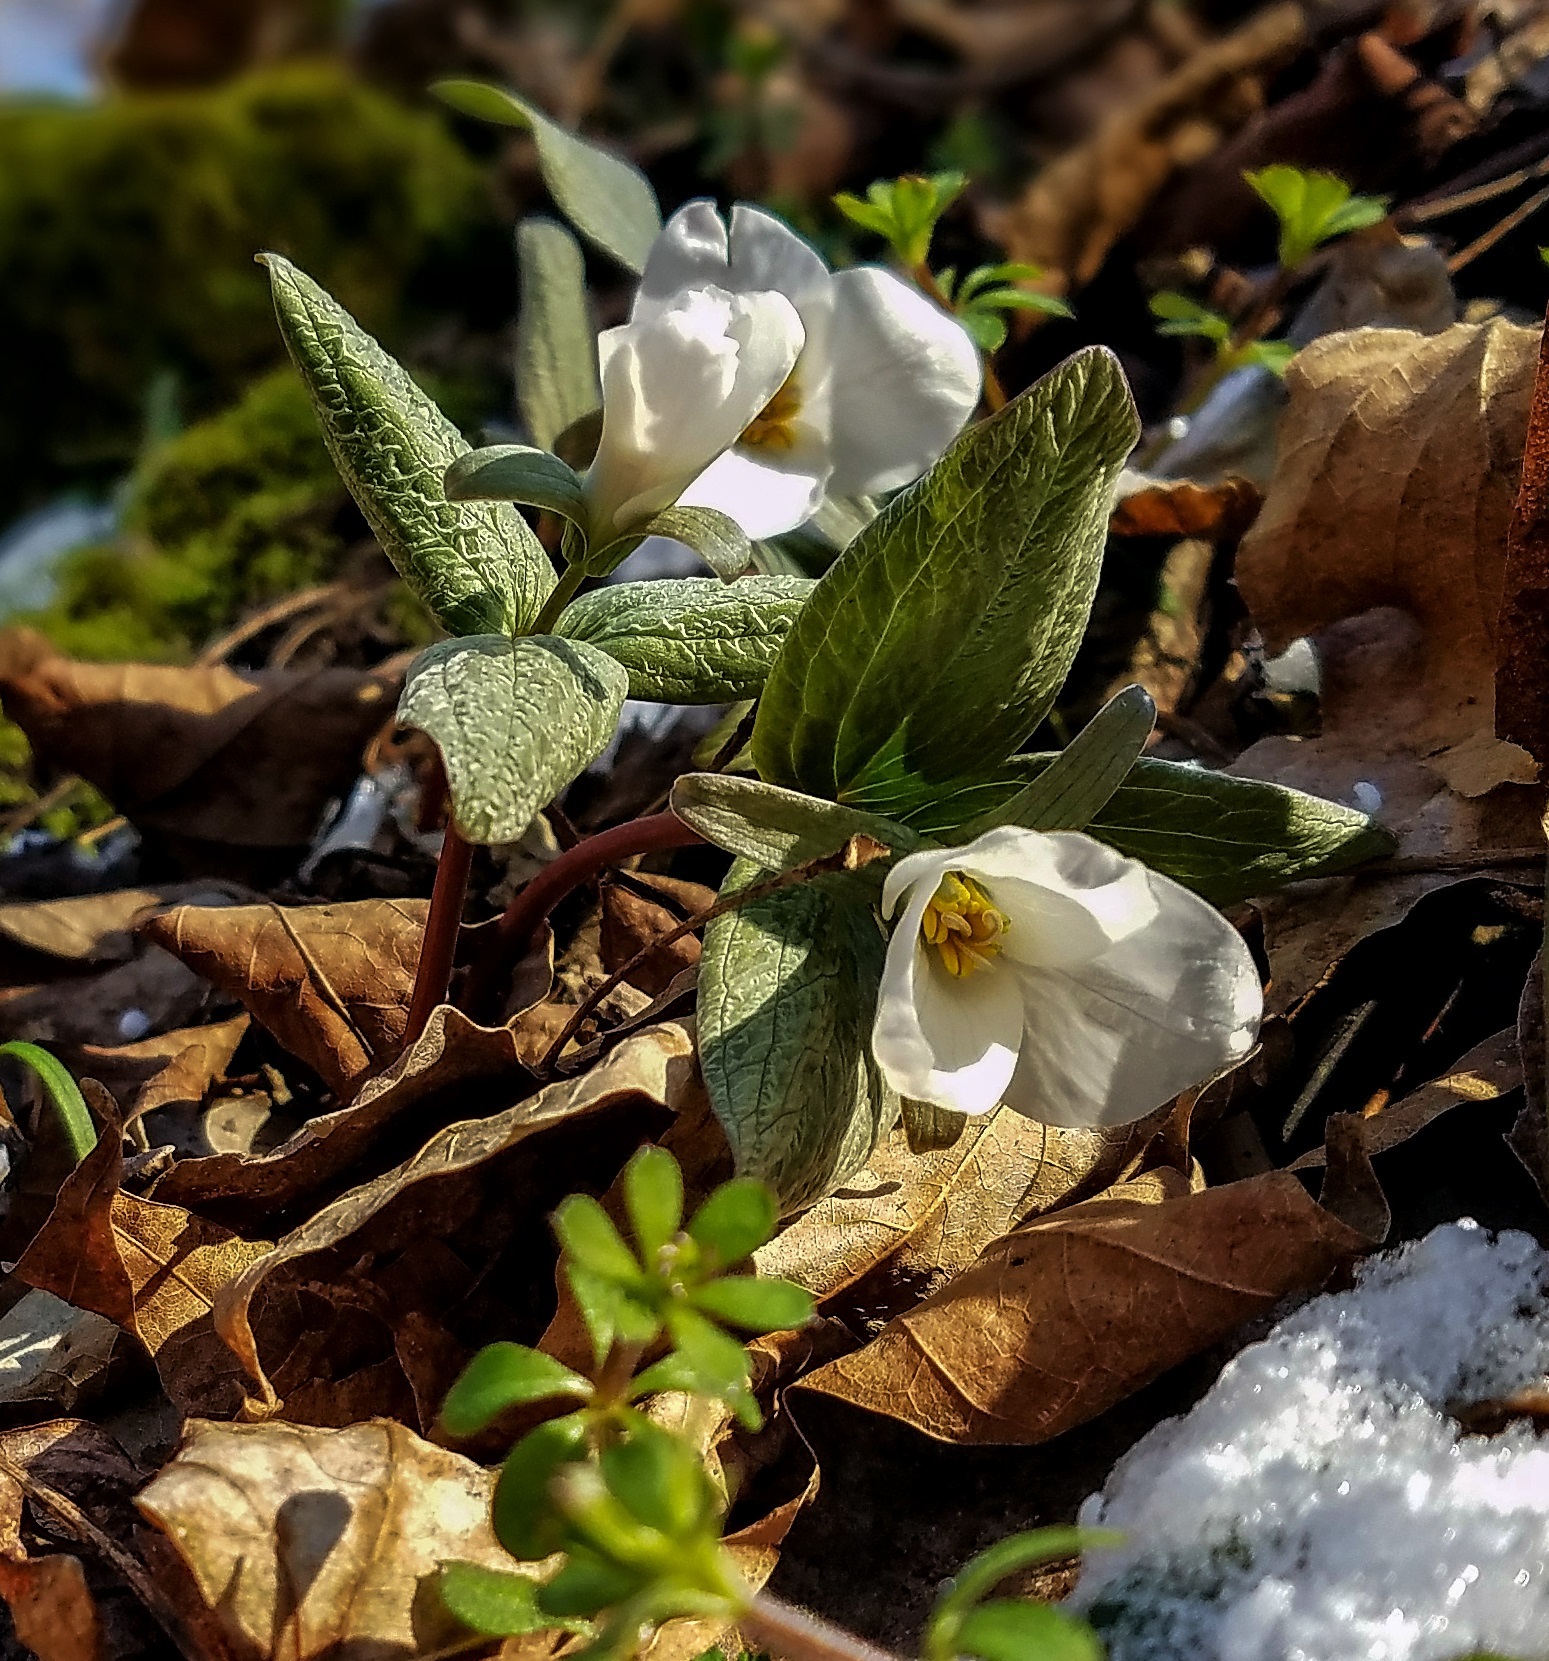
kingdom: Plantae
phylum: Tracheophyta
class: Liliopsida
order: Liliales
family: Melanthiaceae
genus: Trillium
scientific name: Trillium nivale
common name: Dwarf white trillium
